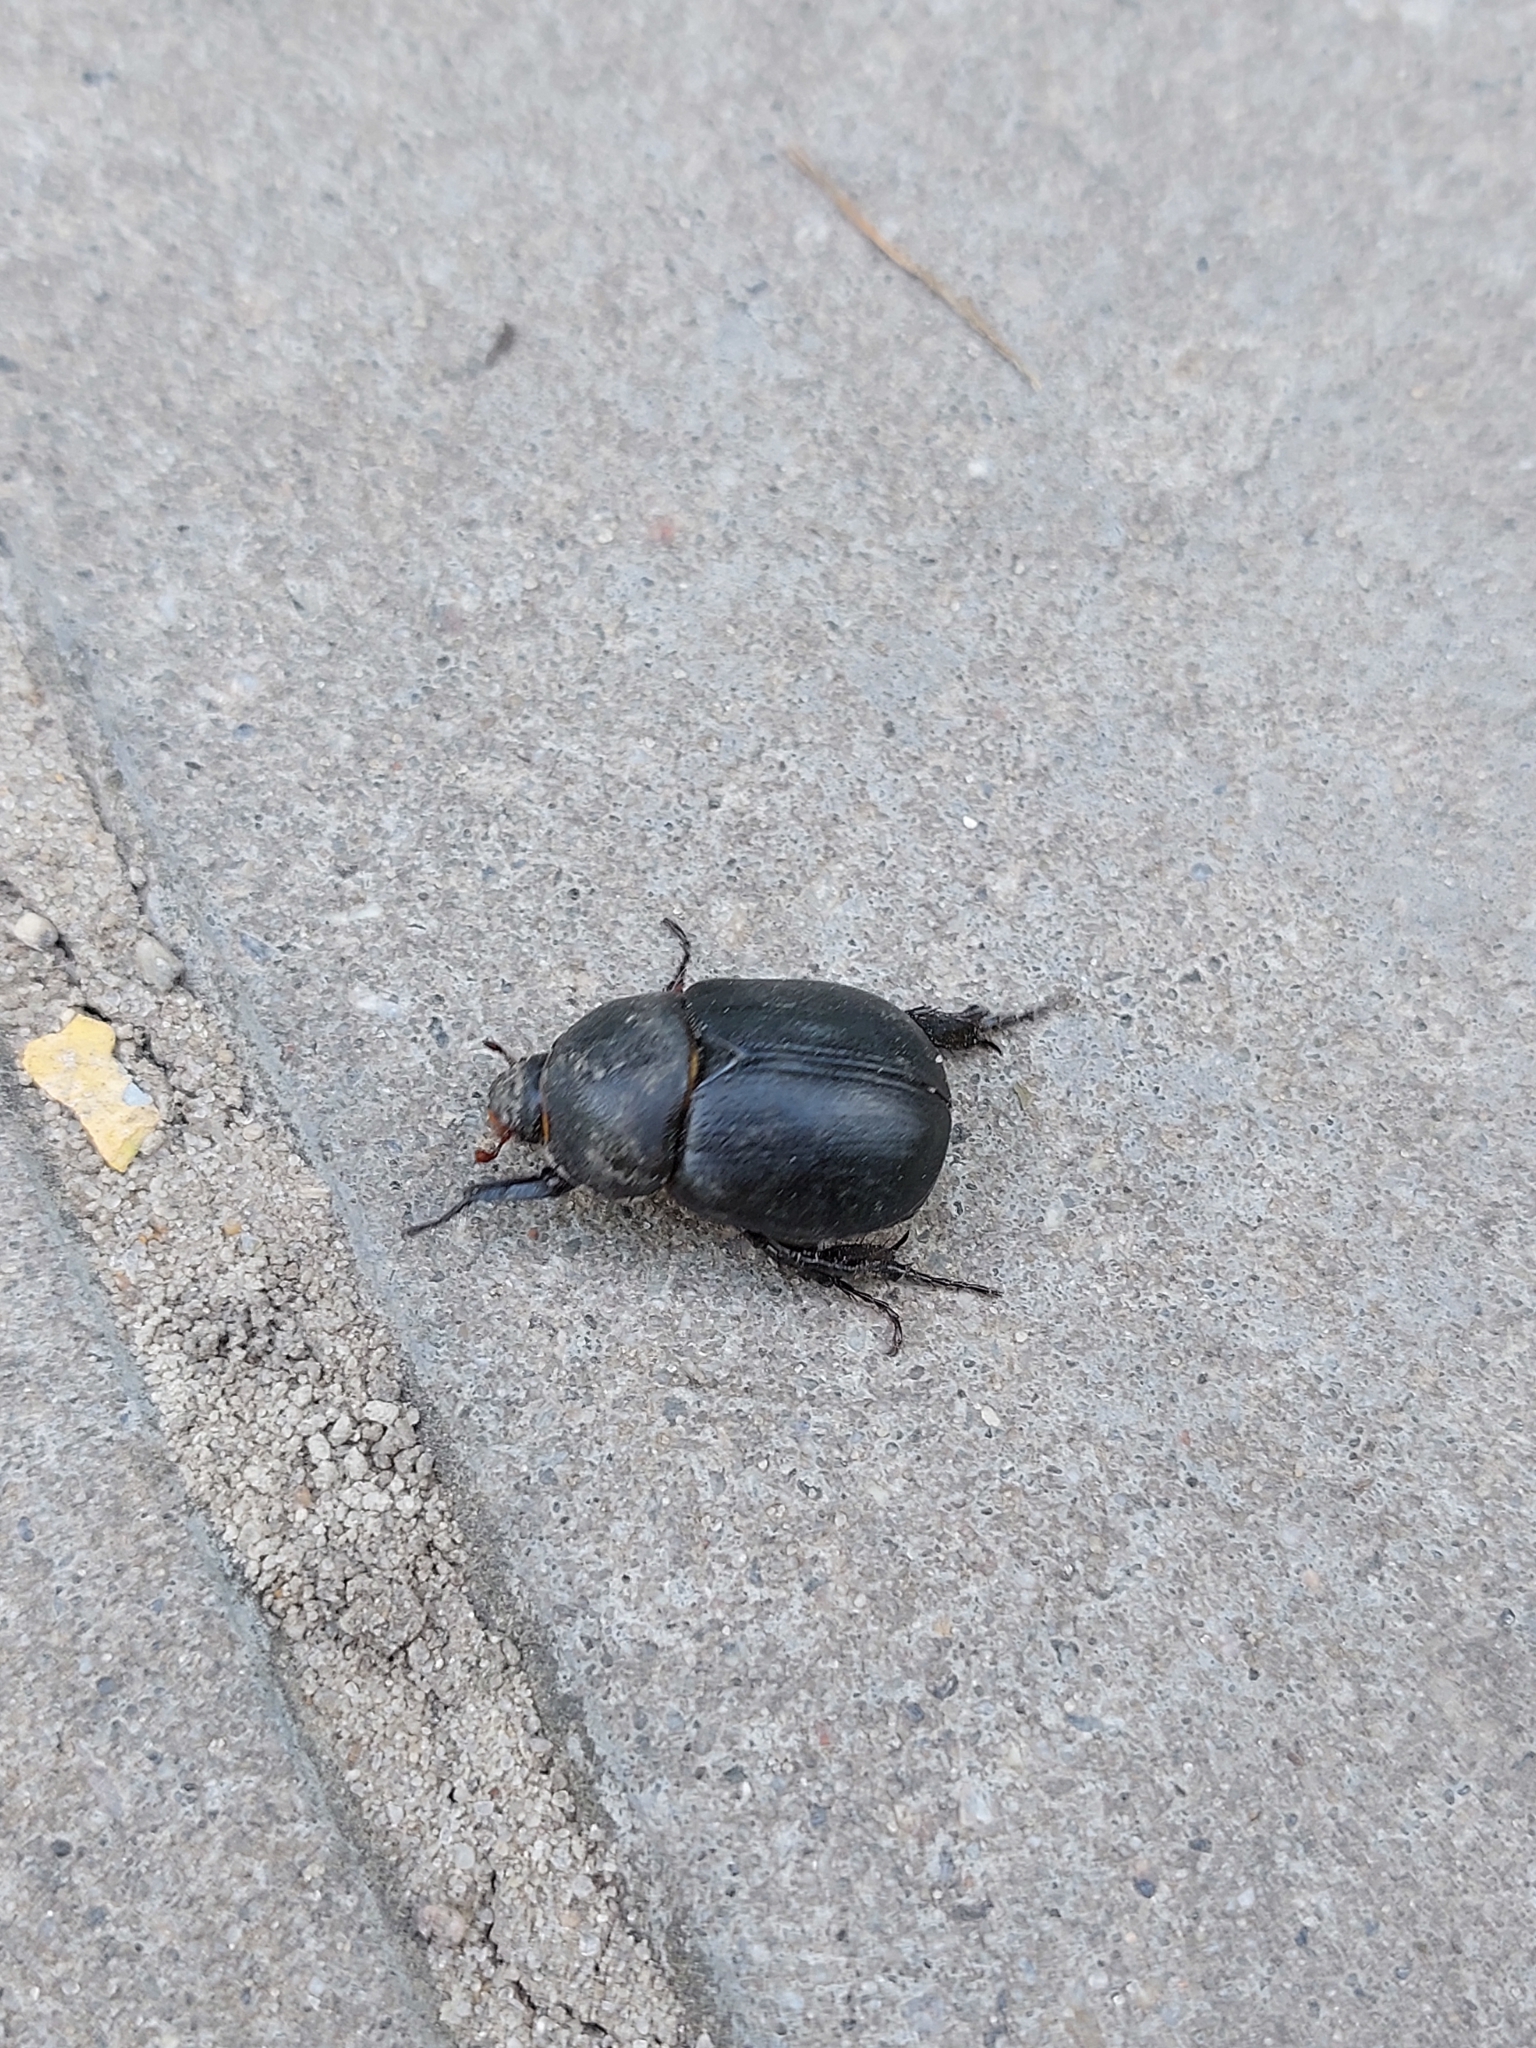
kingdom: Animalia
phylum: Arthropoda
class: Insecta
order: Coleoptera
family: Scarabaeidae
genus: Pentodon
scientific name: Pentodon idiota
